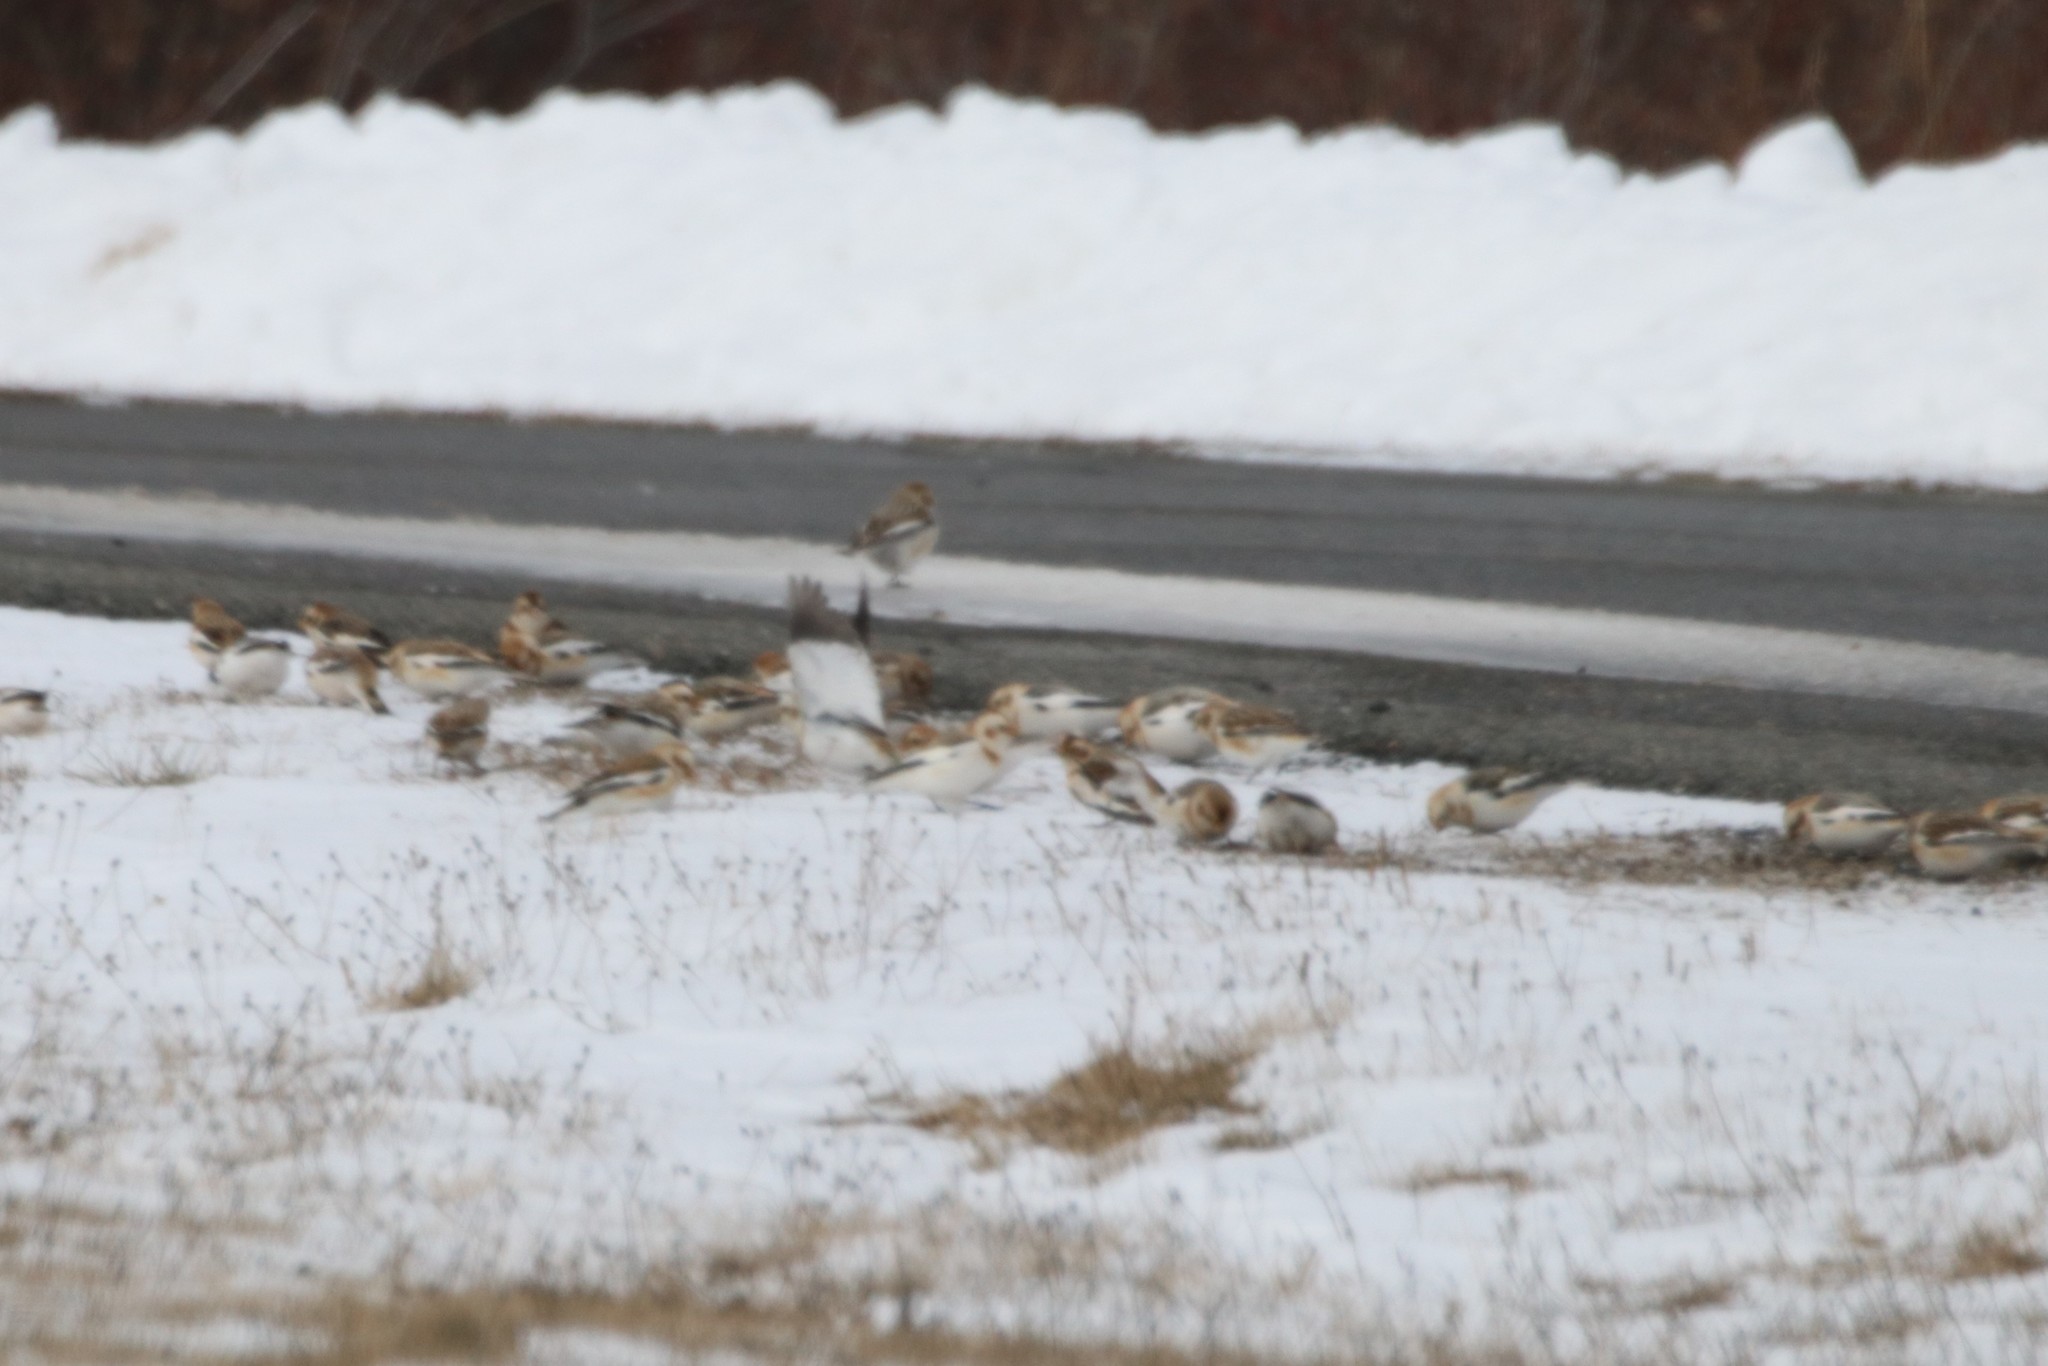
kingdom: Animalia
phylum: Chordata
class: Aves
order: Passeriformes
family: Calcariidae
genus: Plectrophenax
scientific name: Plectrophenax nivalis
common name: Snow bunting
